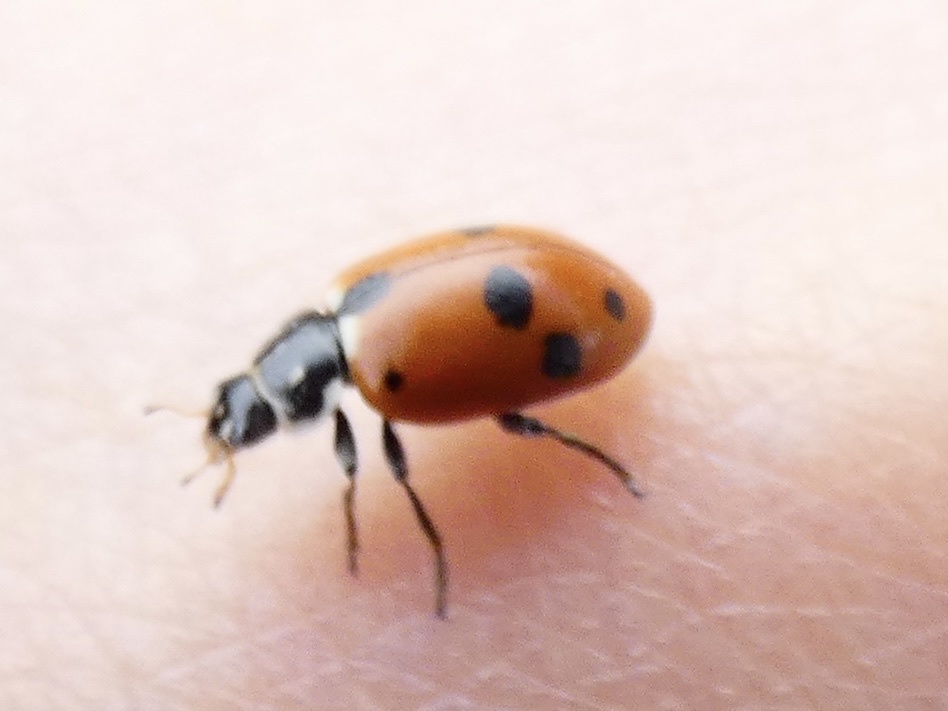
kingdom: Animalia
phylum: Arthropoda
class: Insecta
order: Coleoptera
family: Coccinellidae
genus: Hippodamia
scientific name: Hippodamia variegata
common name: Ladybird beetle
